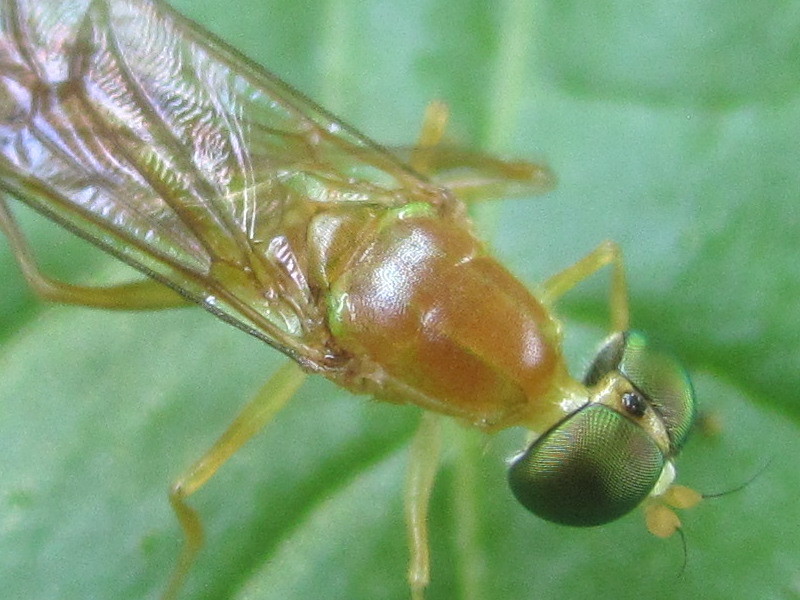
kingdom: Animalia
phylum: Arthropoda
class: Insecta
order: Diptera
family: Stratiomyidae
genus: Ptecticus
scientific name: Ptecticus trivittatus
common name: Compost fly
